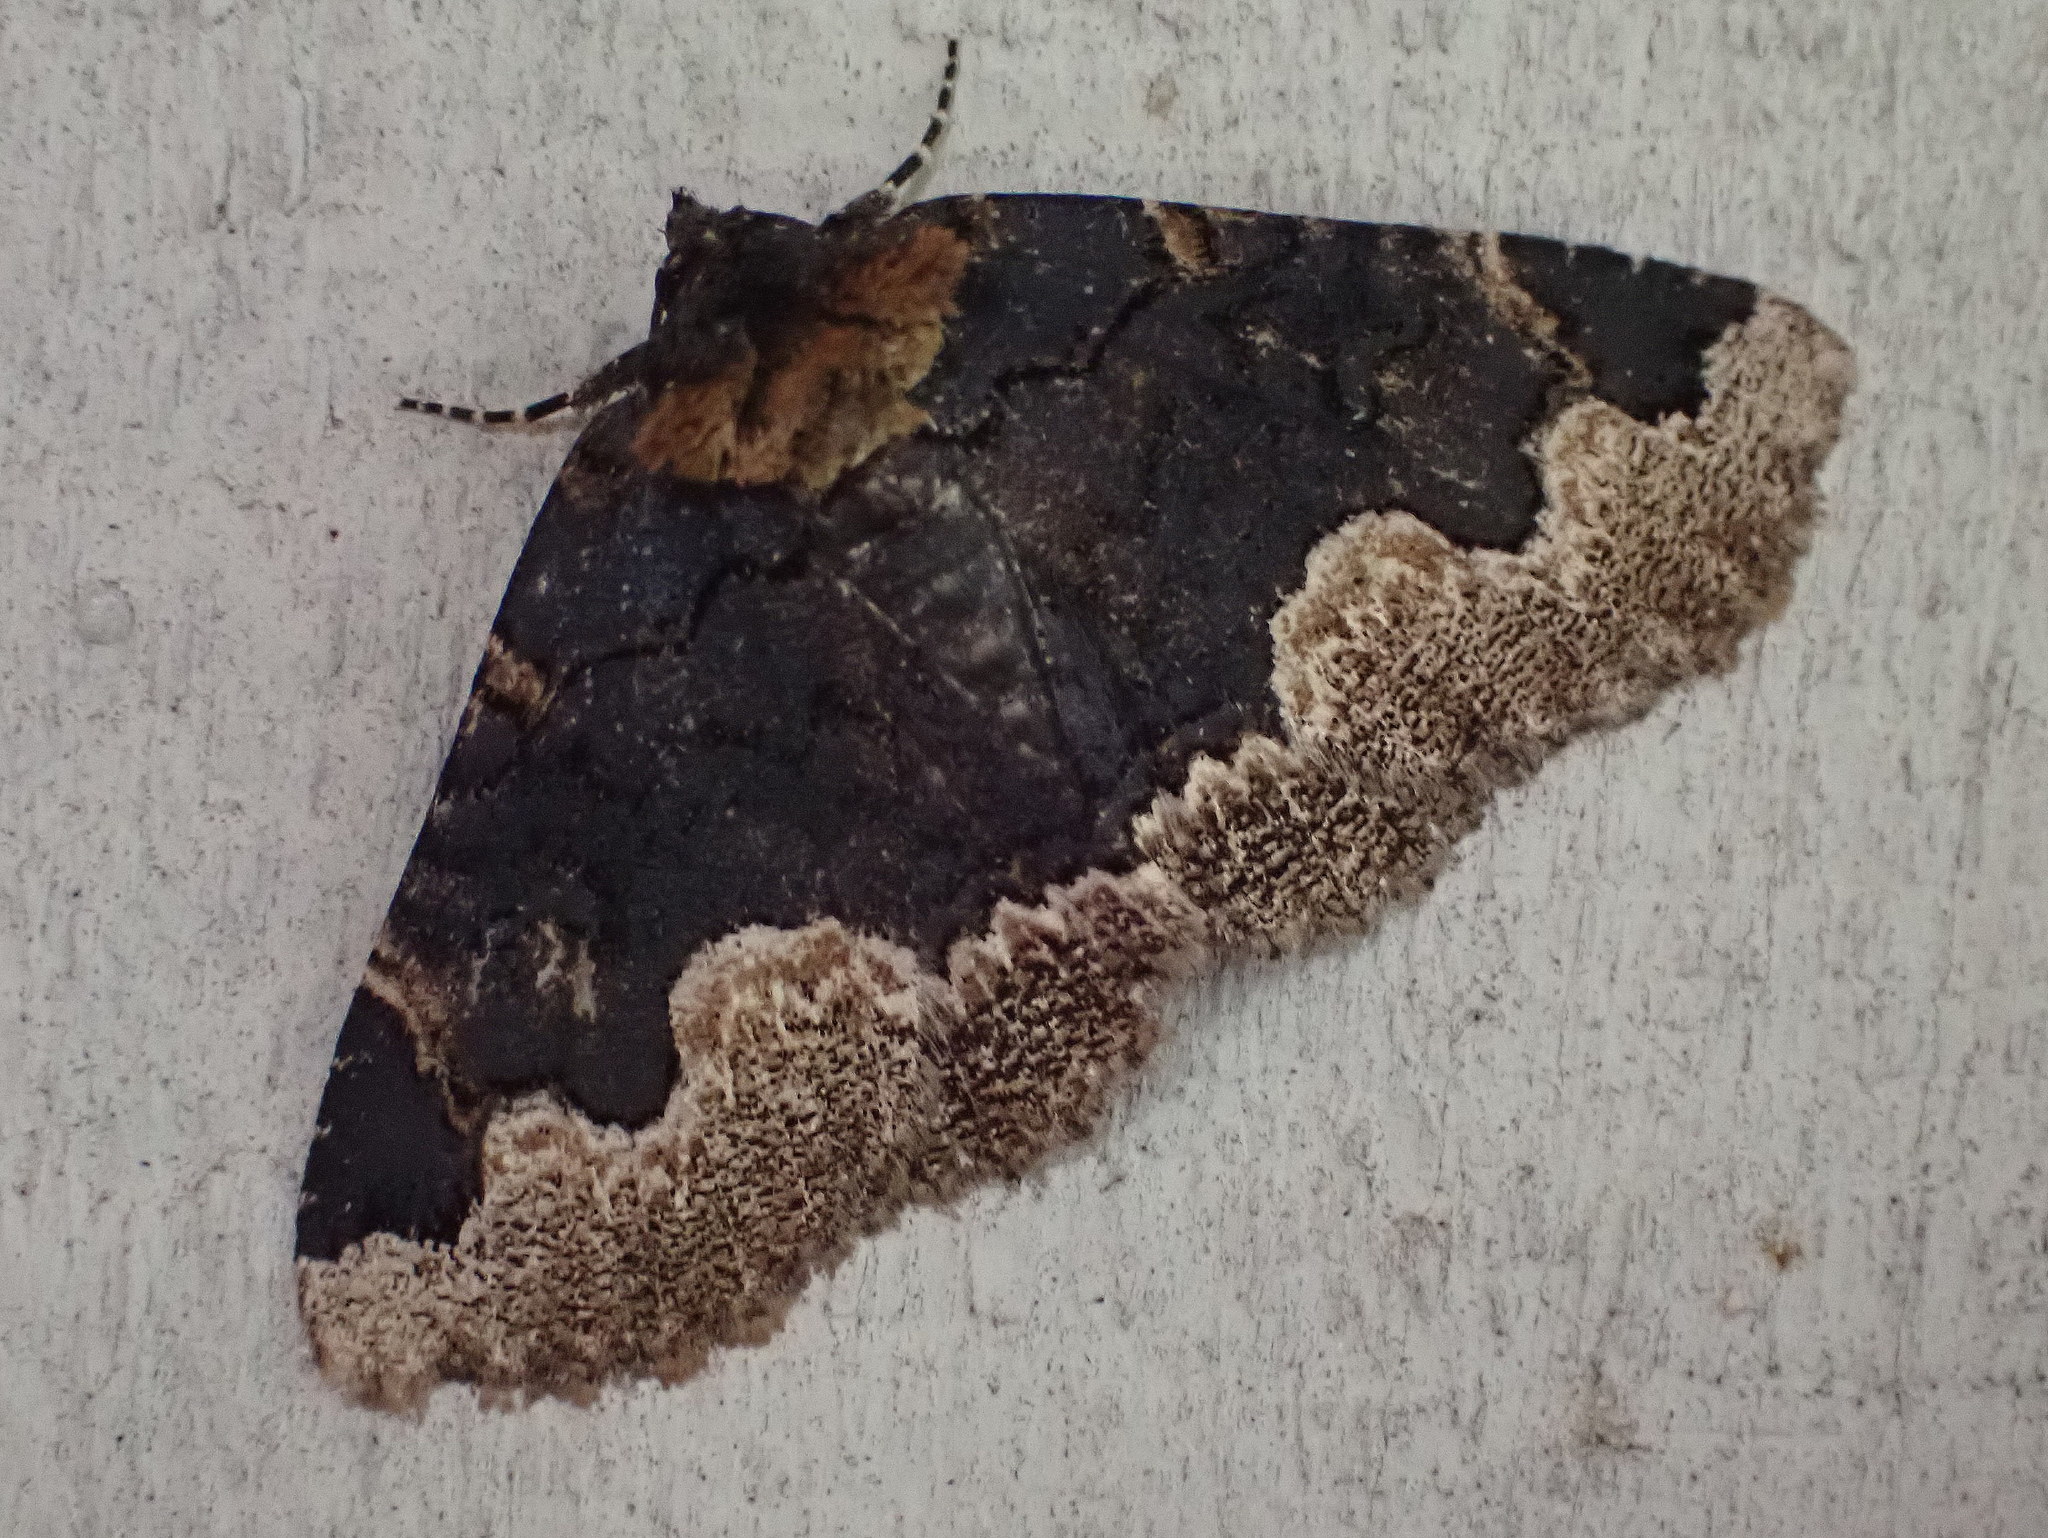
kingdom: Animalia
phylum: Arthropoda
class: Insecta
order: Lepidoptera
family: Erebidae
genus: Zale
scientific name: Zale horrida
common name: Horrid zale moth
